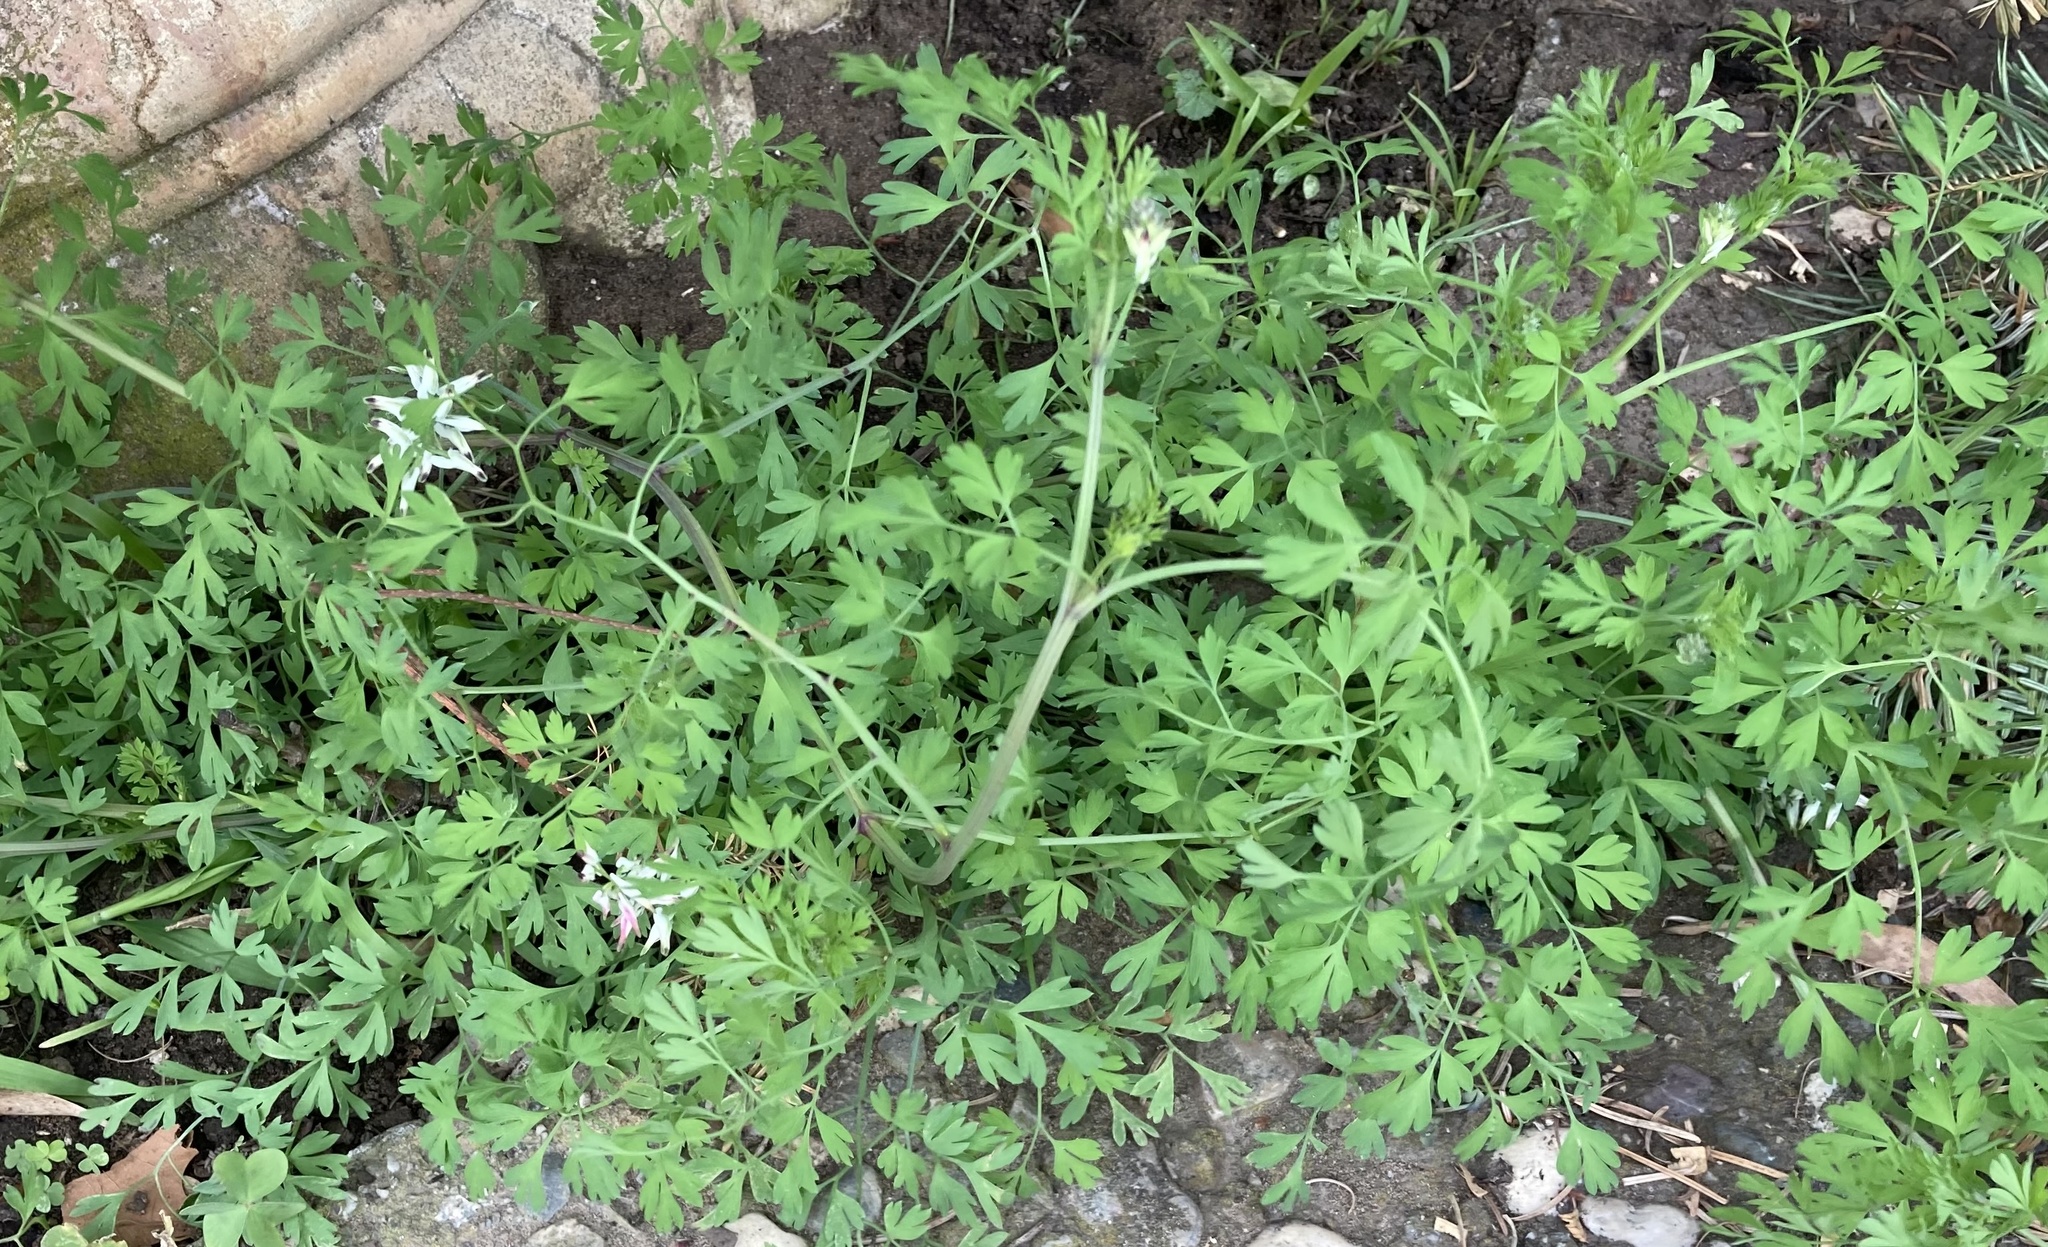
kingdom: Plantae
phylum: Tracheophyta
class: Magnoliopsida
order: Ranunculales
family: Papaveraceae
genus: Fumaria
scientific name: Fumaria capreolata
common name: White ramping-fumitory
